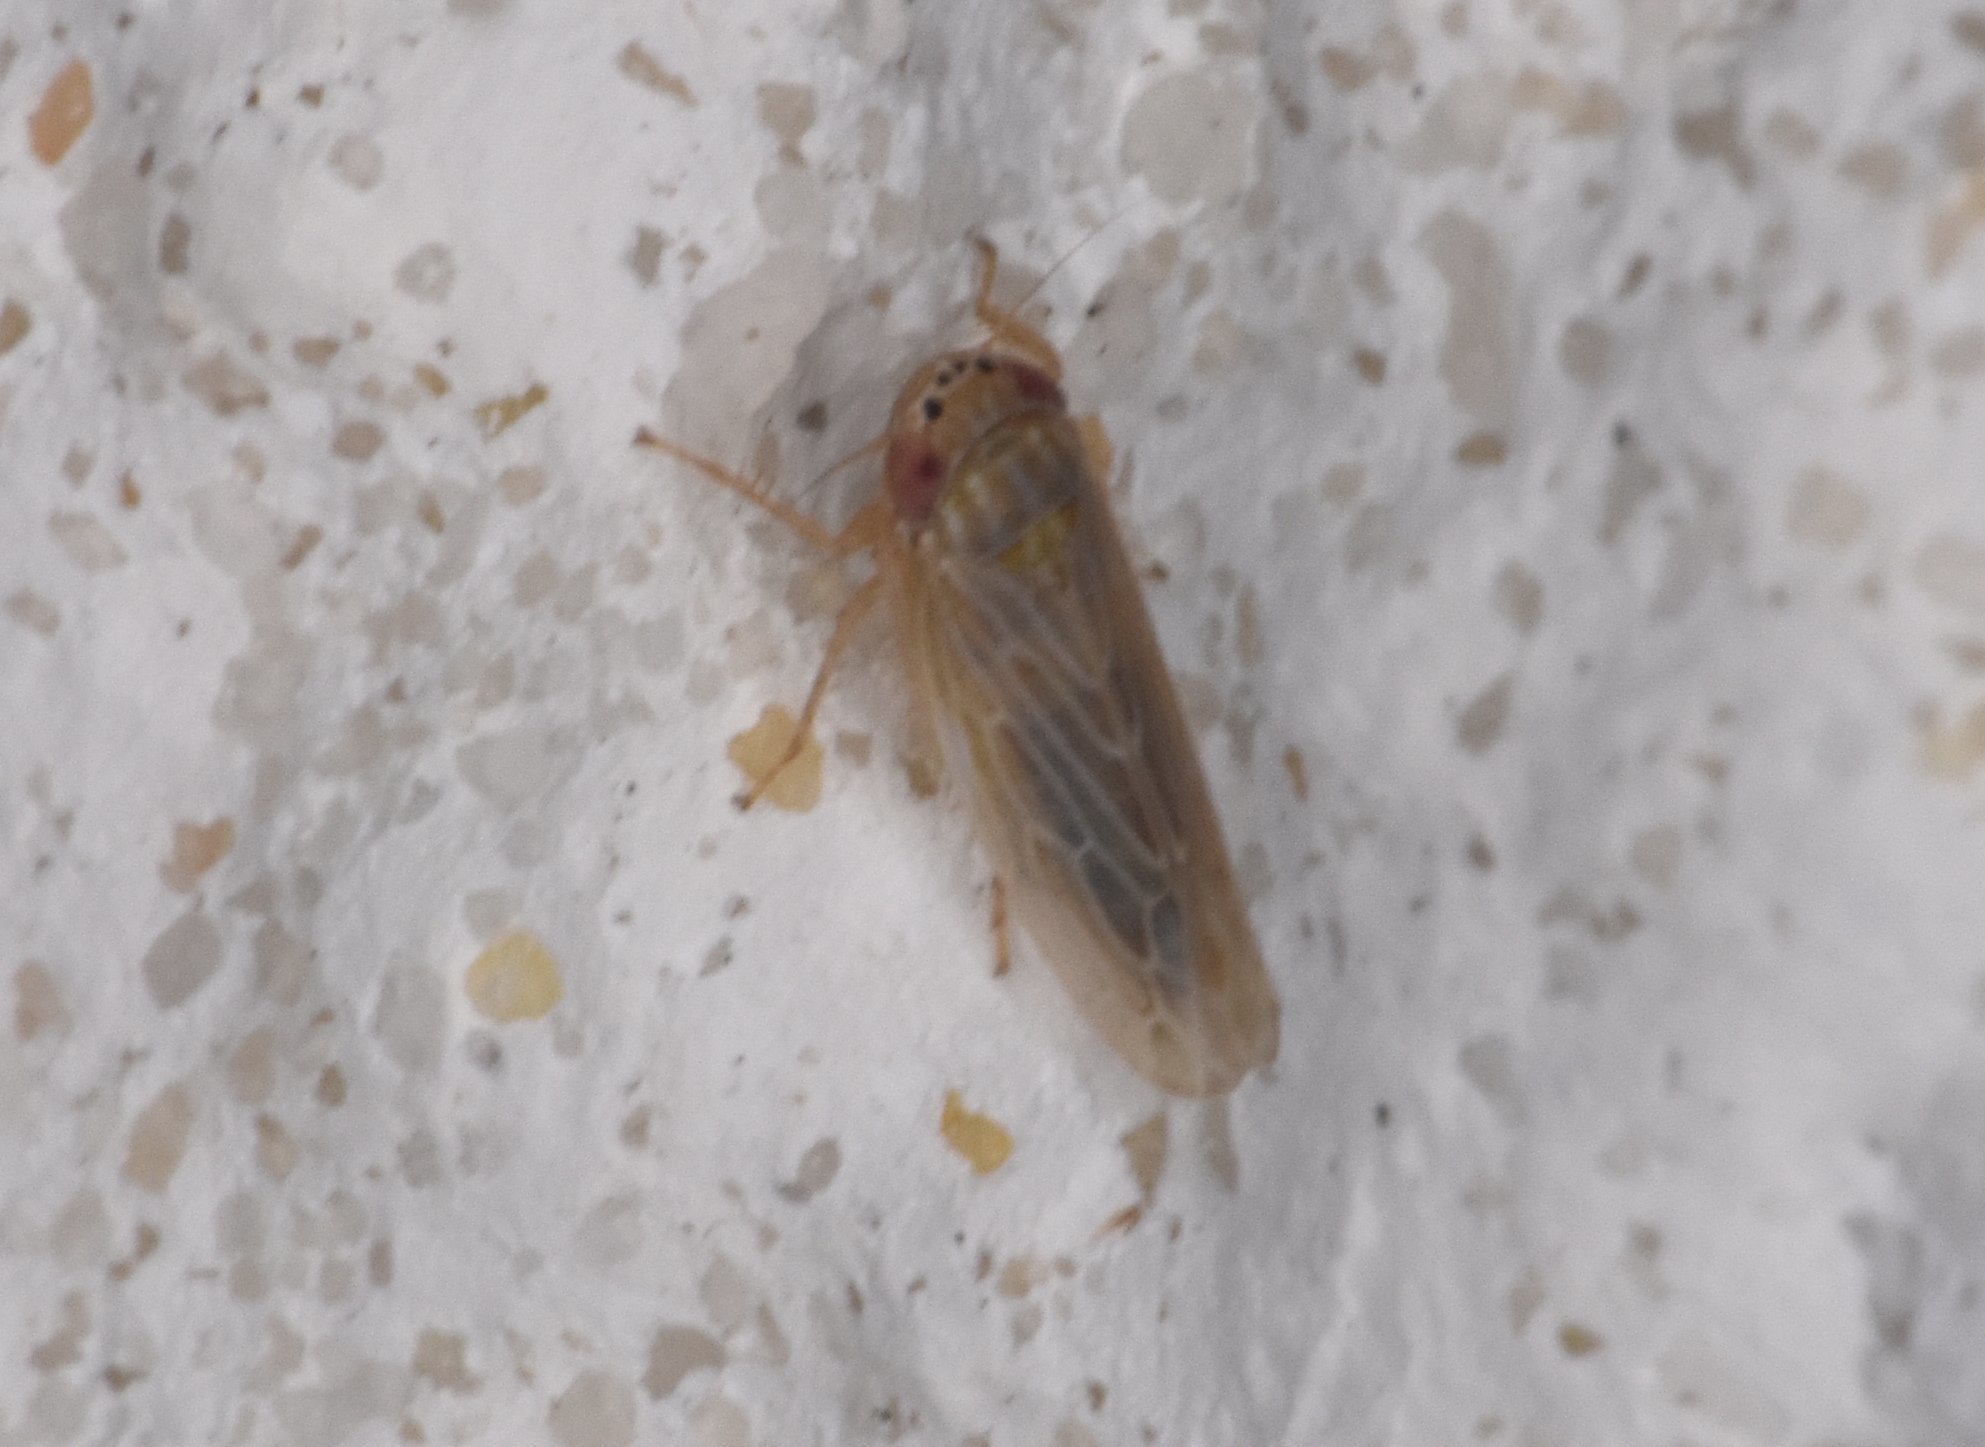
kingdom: Animalia
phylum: Arthropoda
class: Insecta
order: Hemiptera
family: Cicadellidae
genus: Graminella
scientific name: Graminella sonora
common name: Lesser lawn leafhopper
